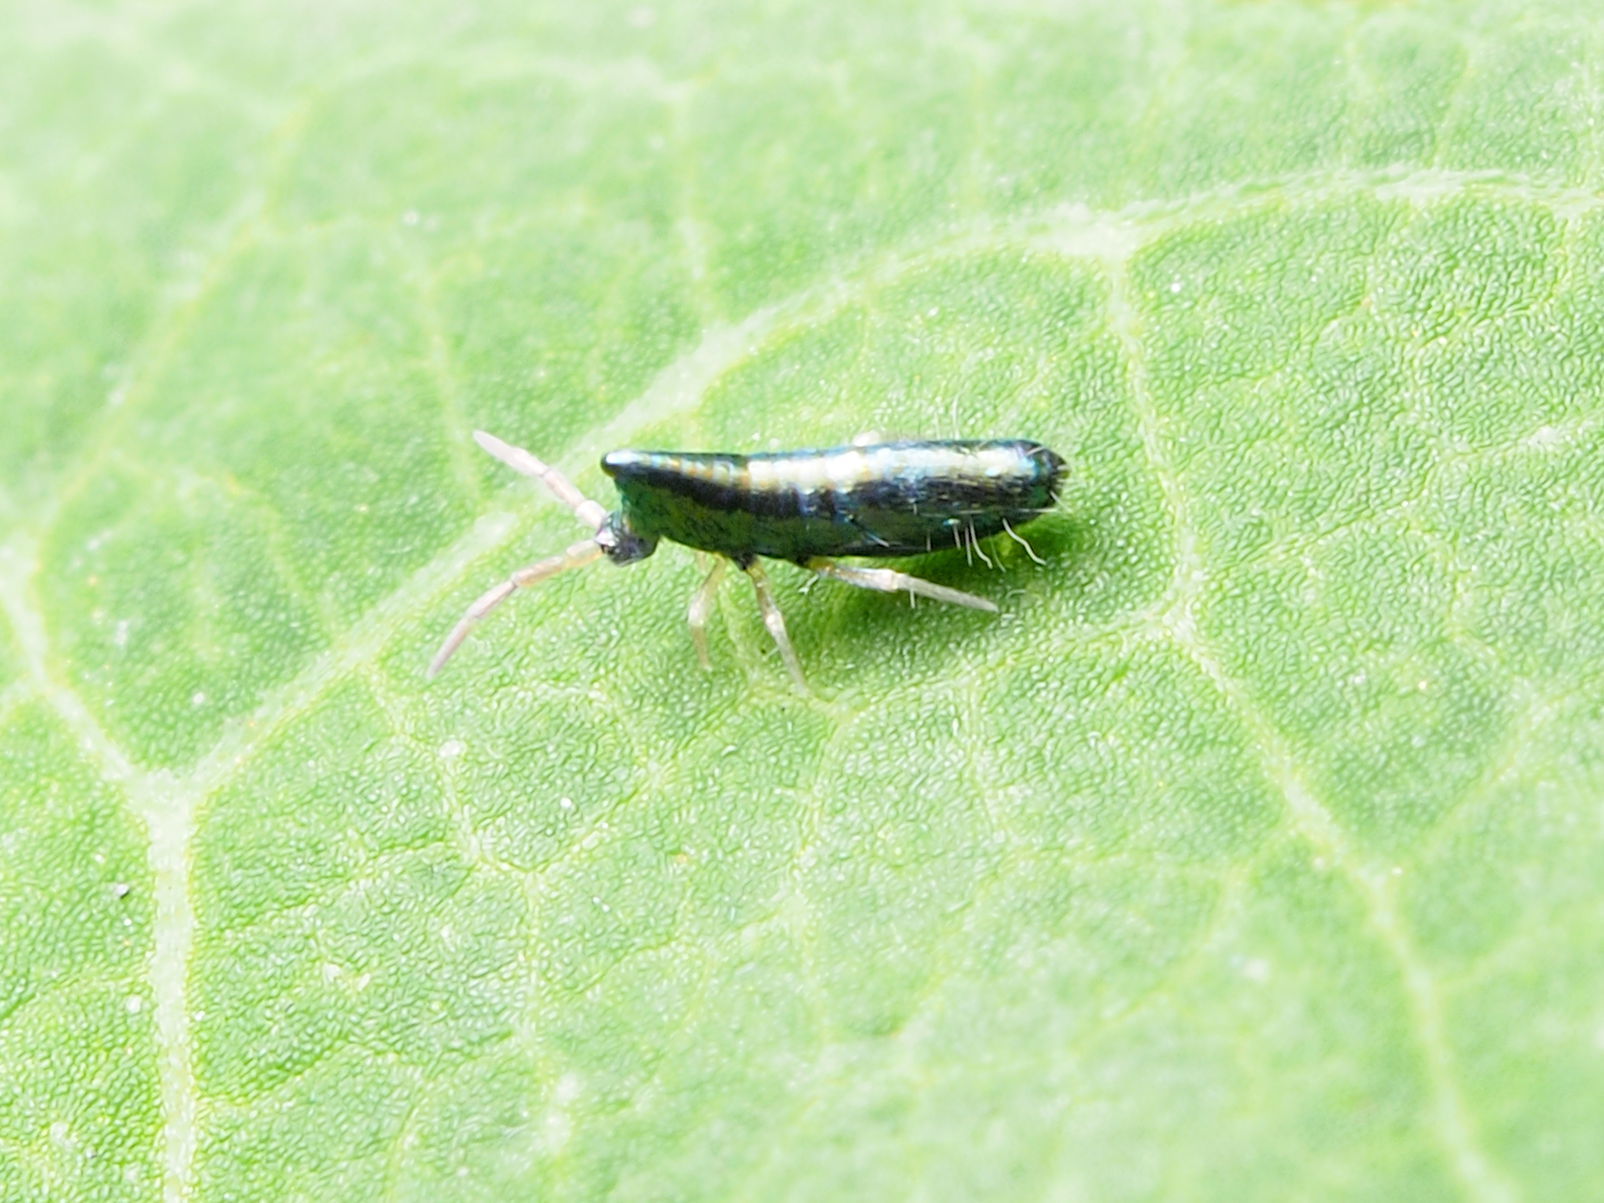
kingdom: Animalia
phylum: Arthropoda
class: Collembola
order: Entomobryomorpha
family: Entomobryidae
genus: Lepidocyrtus
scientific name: Lepidocyrtus paradoxus
